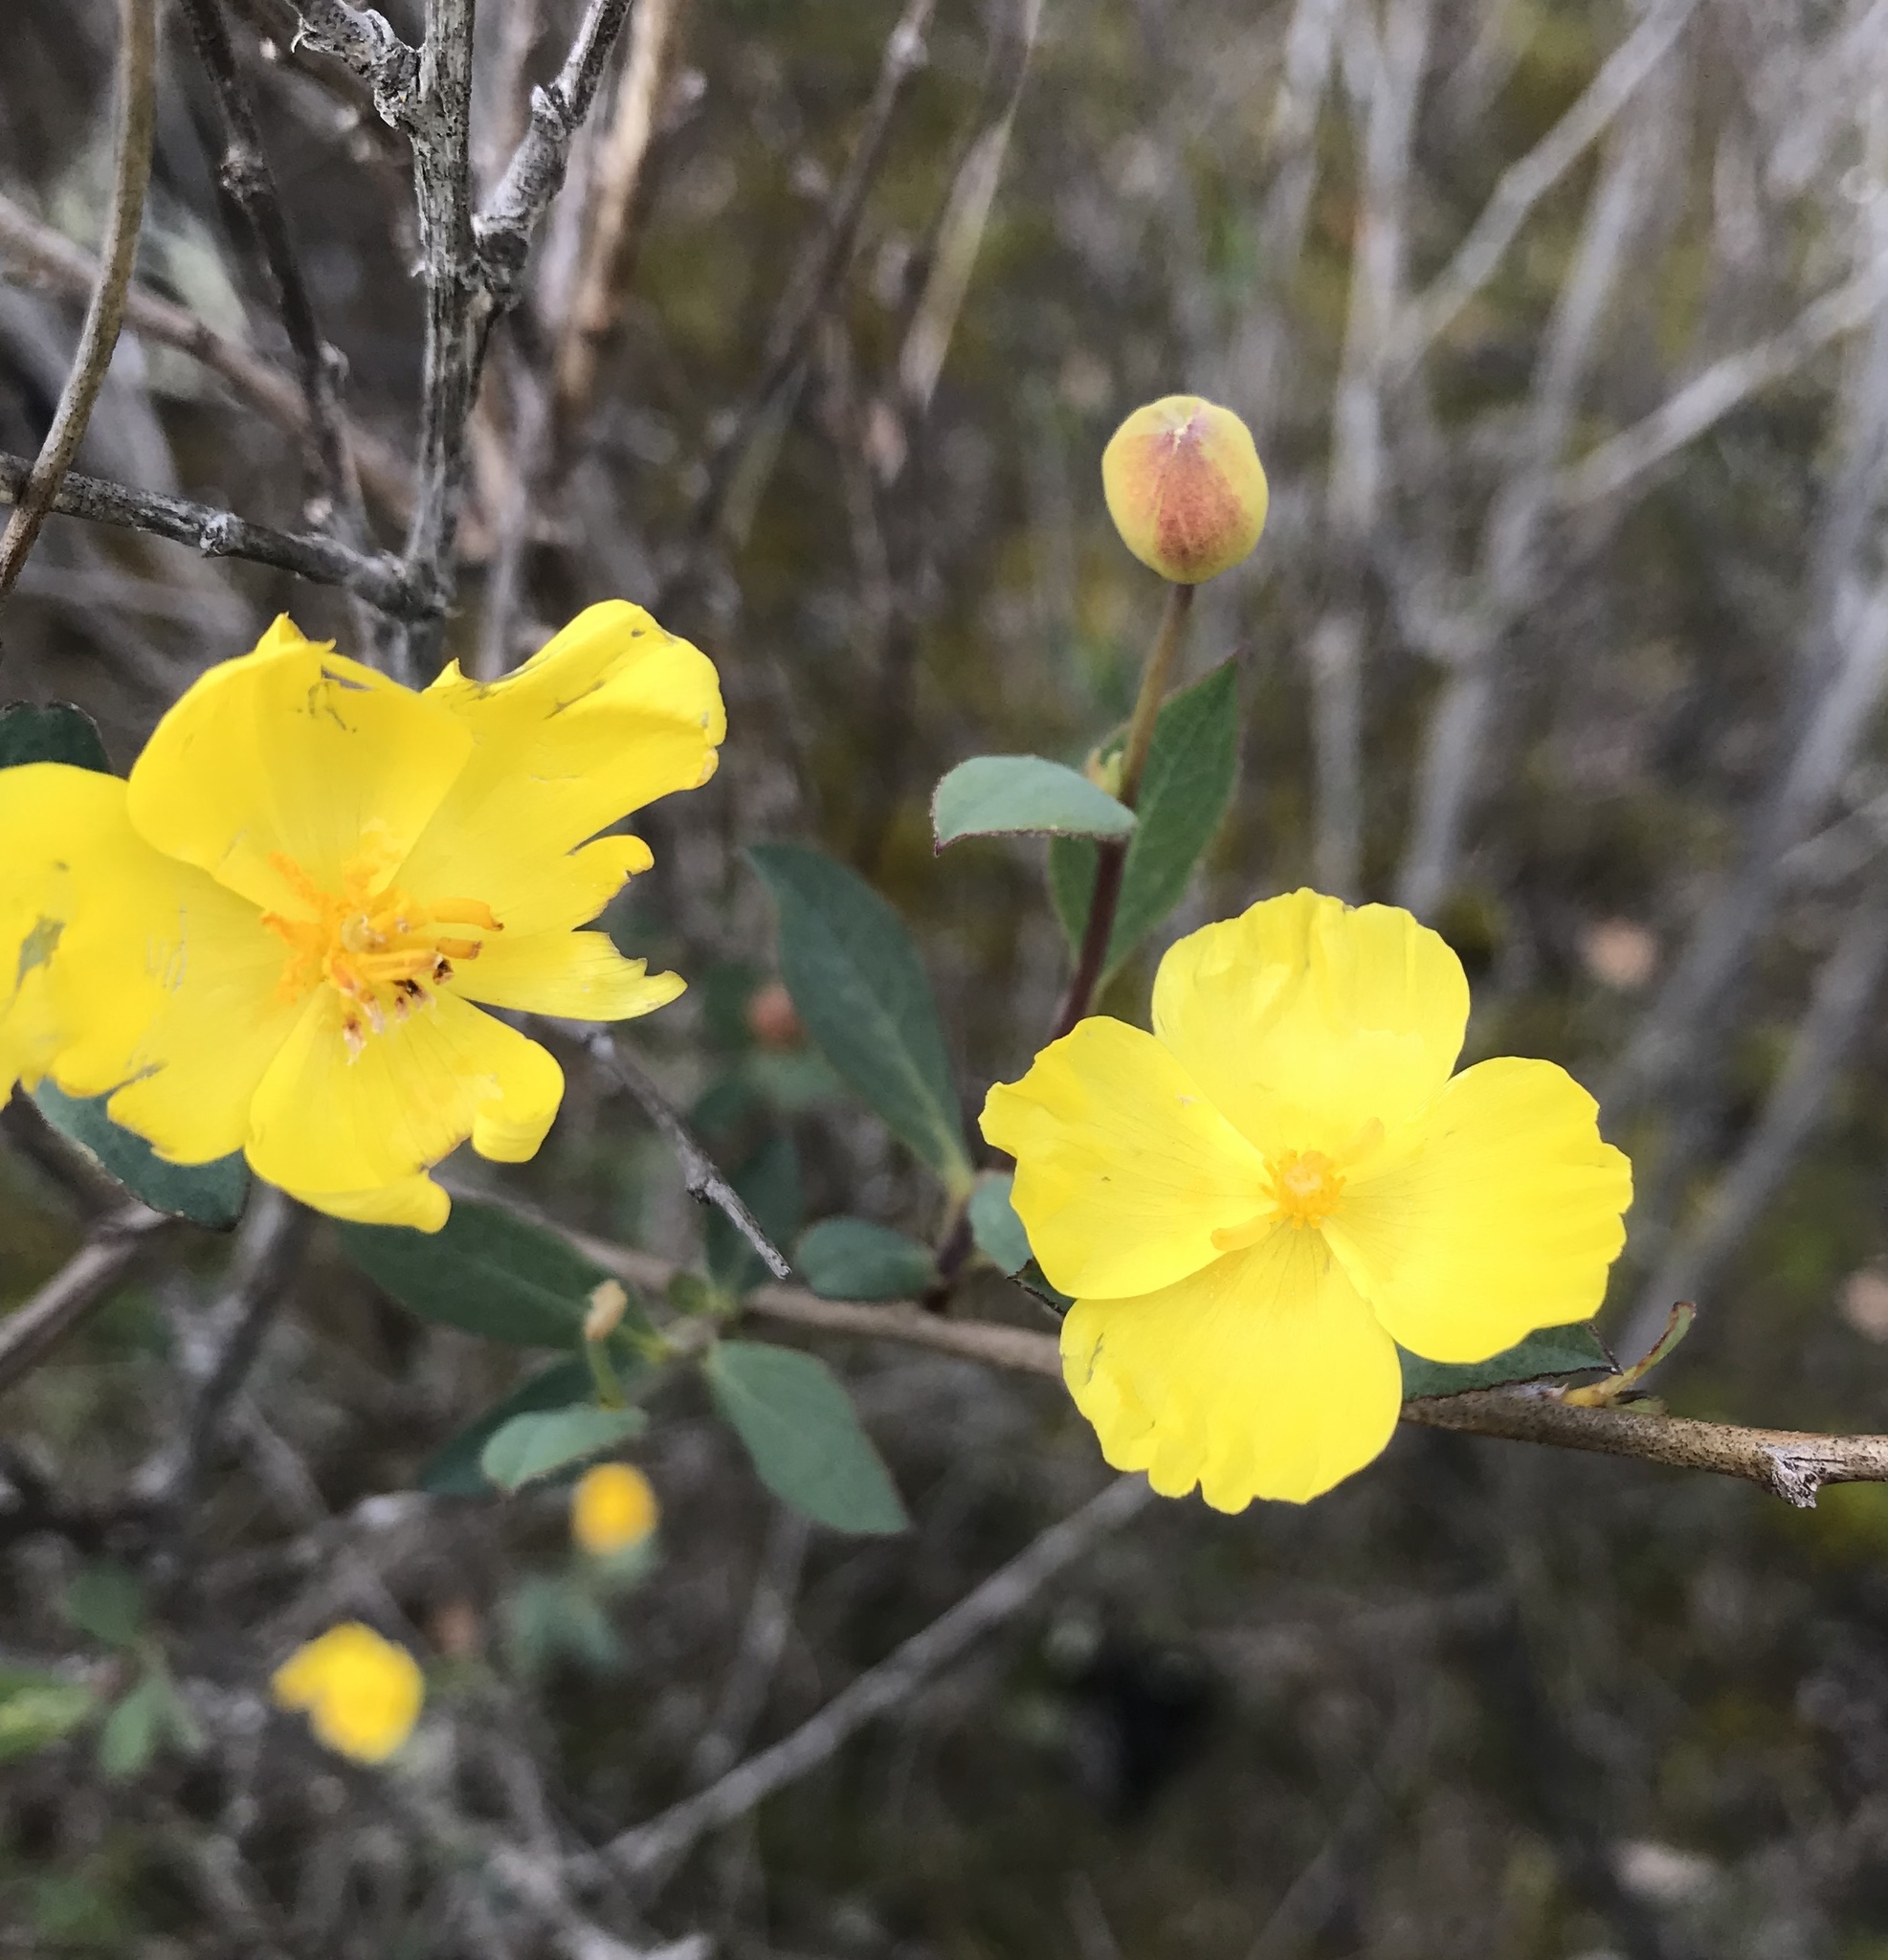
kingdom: Plantae
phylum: Tracheophyta
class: Magnoliopsida
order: Ranunculales
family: Papaveraceae
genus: Dendromecon
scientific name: Dendromecon rigida
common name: Tree poppy
